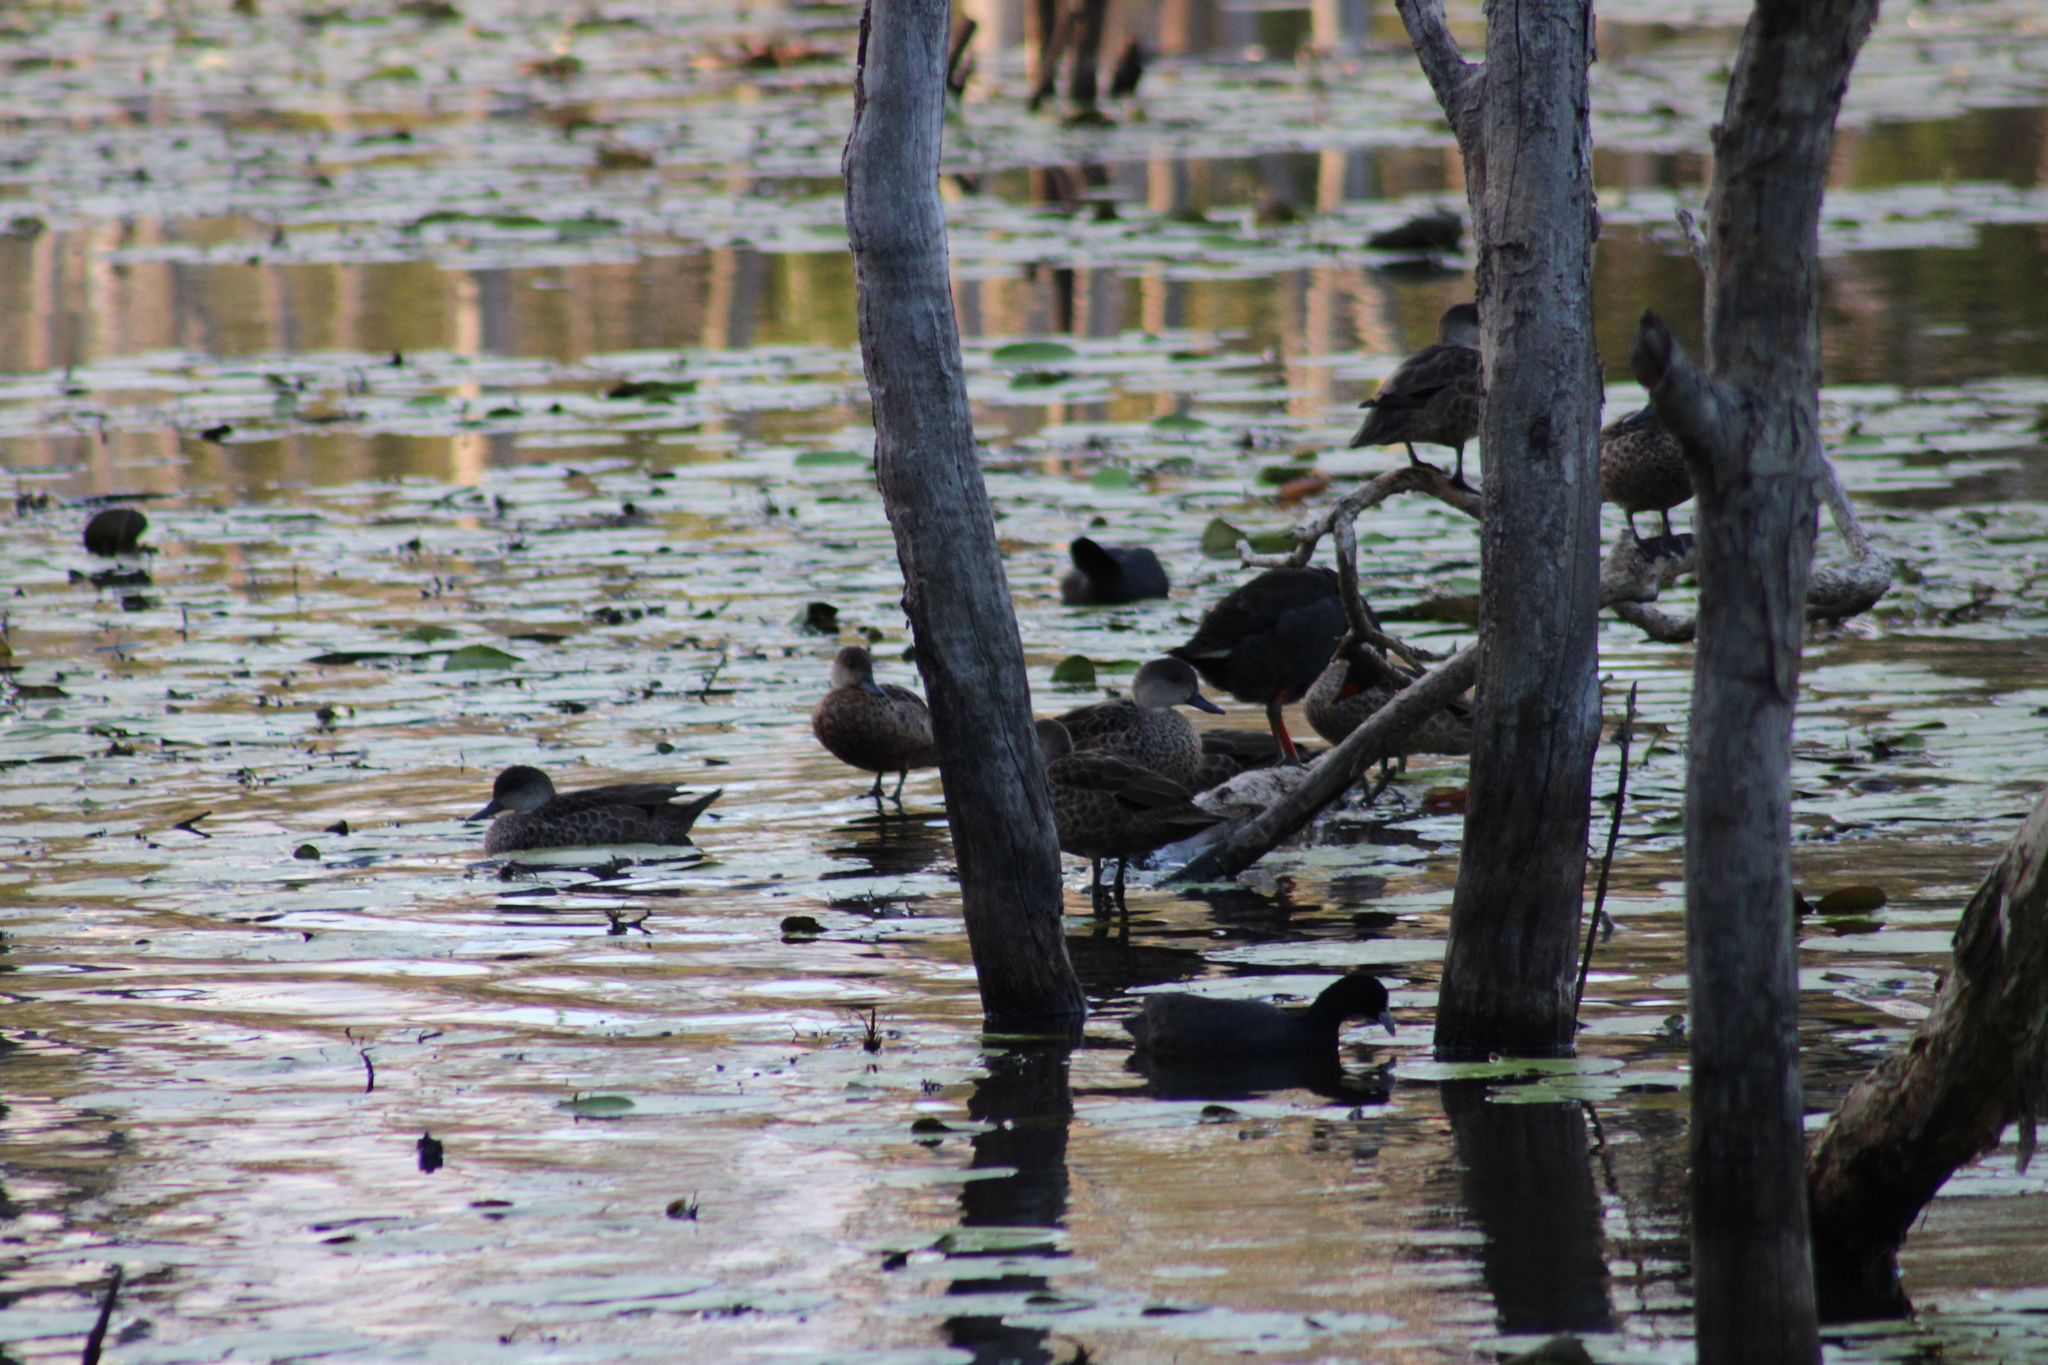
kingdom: Animalia
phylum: Chordata
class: Aves
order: Anseriformes
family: Anatidae
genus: Anas
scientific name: Anas gracilis
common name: Grey teal
